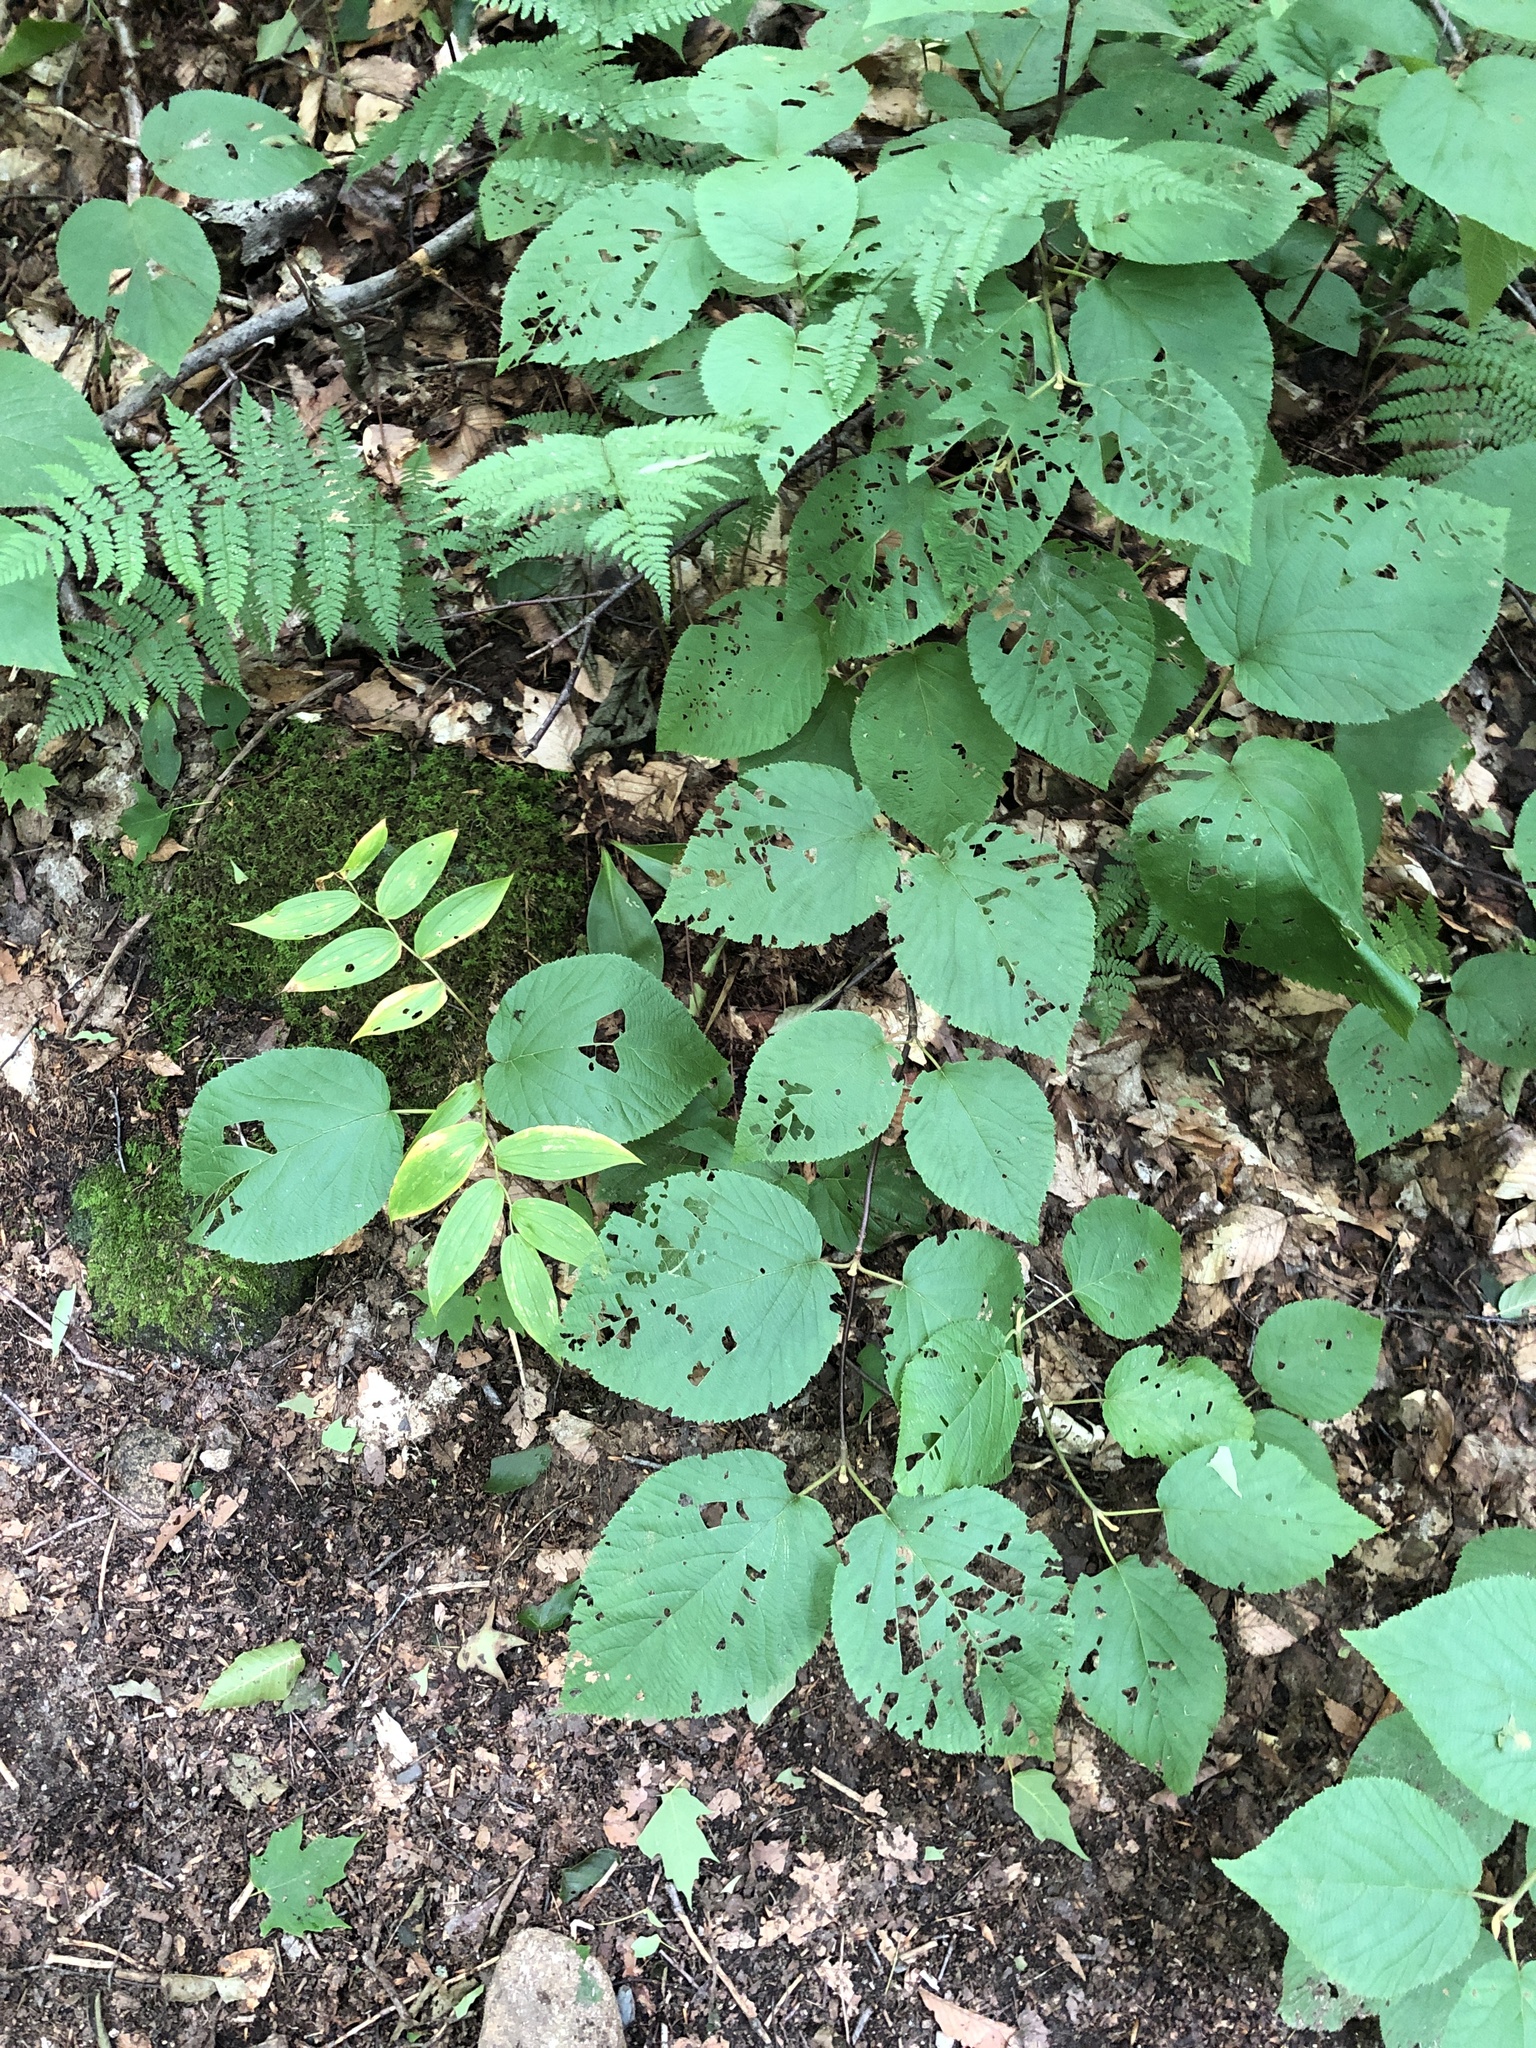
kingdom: Plantae
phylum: Tracheophyta
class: Magnoliopsida
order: Dipsacales
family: Viburnaceae
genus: Viburnum
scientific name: Viburnum lantanoides
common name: Hobblebush
